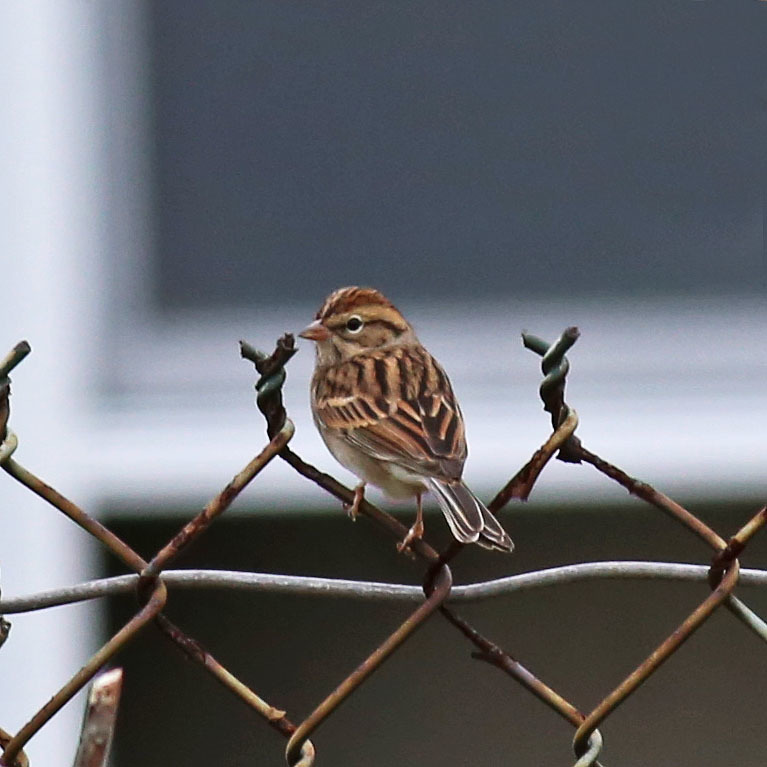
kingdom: Animalia
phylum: Chordata
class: Aves
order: Passeriformes
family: Passerellidae
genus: Spizella
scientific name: Spizella passerina
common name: Chipping sparrow
